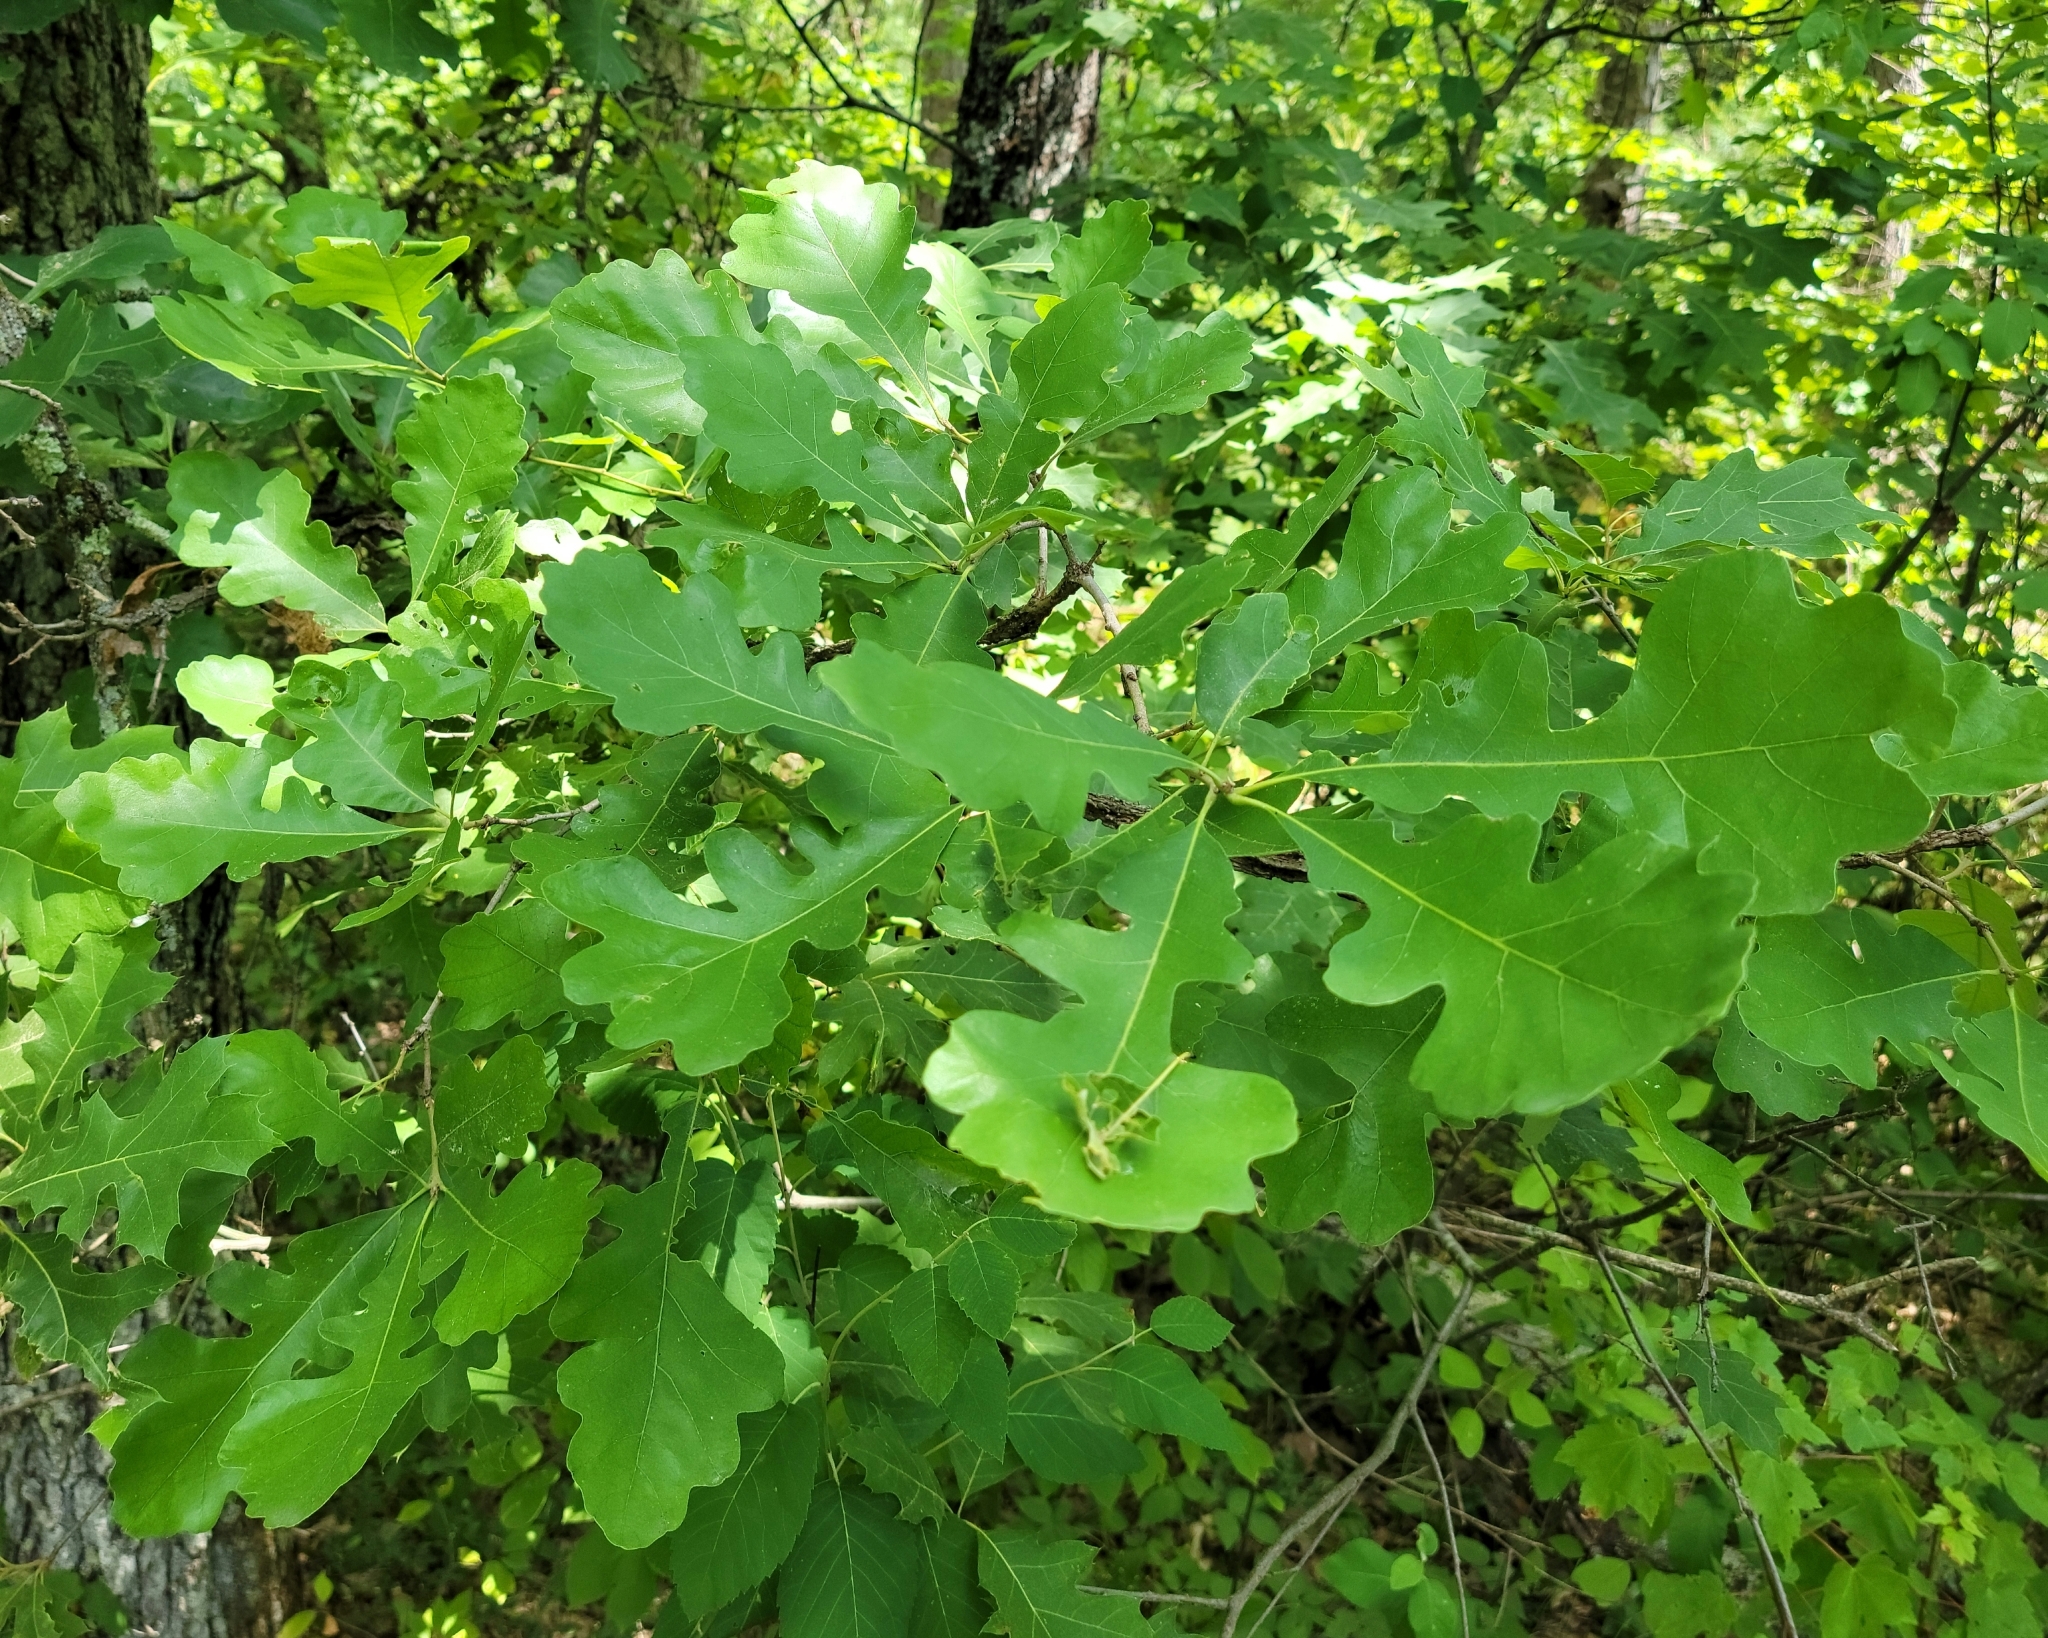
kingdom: Plantae
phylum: Tracheophyta
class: Magnoliopsida
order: Fagales
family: Fagaceae
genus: Quercus
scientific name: Quercus macrocarpa
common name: Bur oak
